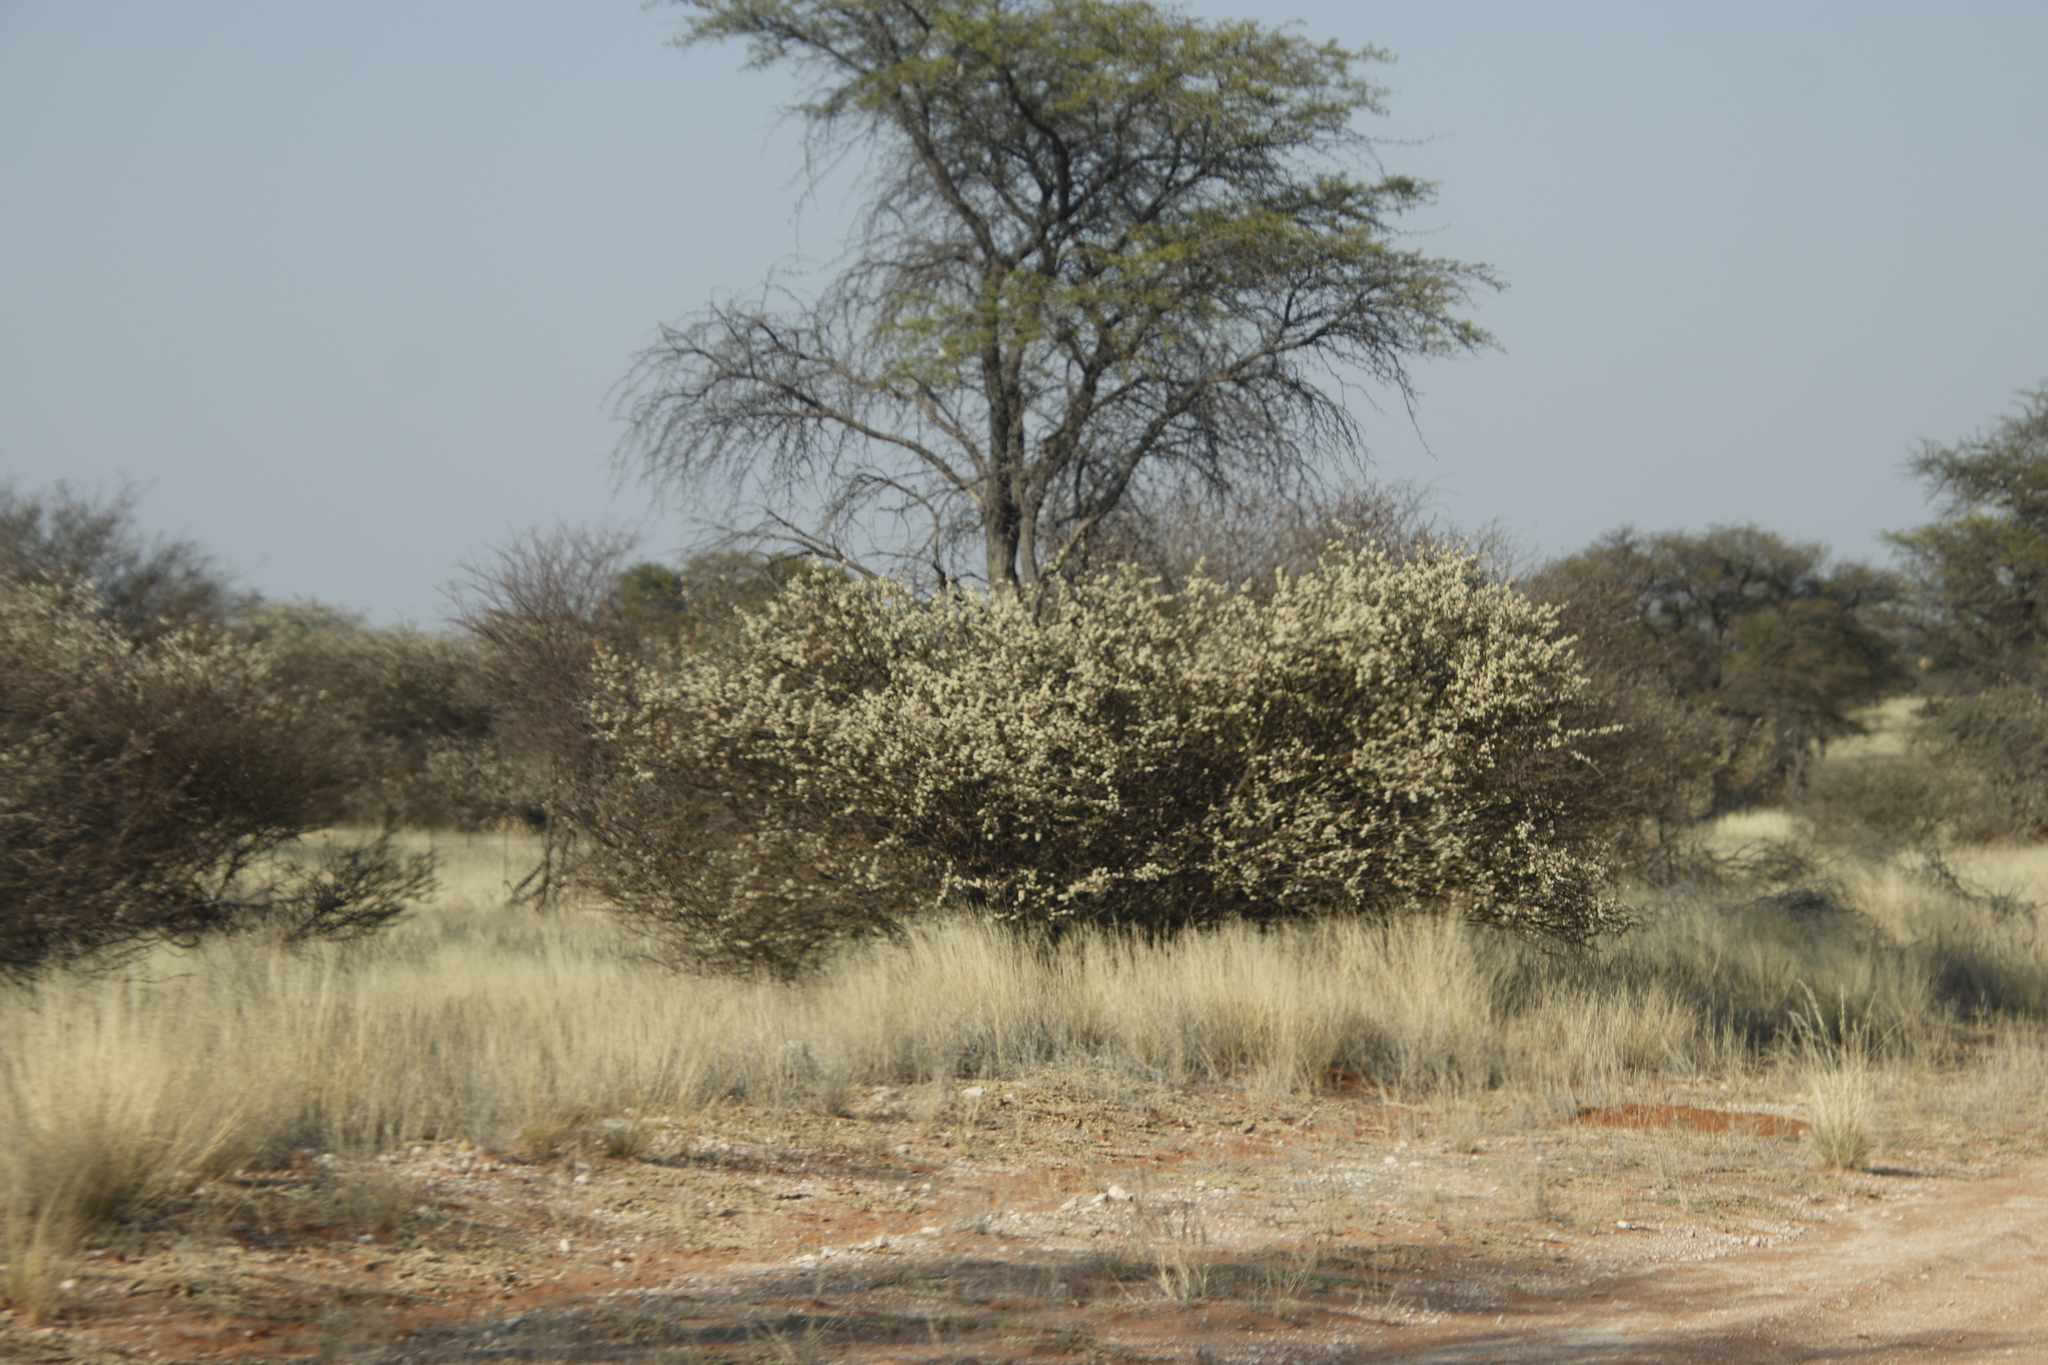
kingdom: Plantae
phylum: Tracheophyta
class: Magnoliopsida
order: Fabales
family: Fabaceae
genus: Senegalia
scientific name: Senegalia mellifera
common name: Hookthorn
